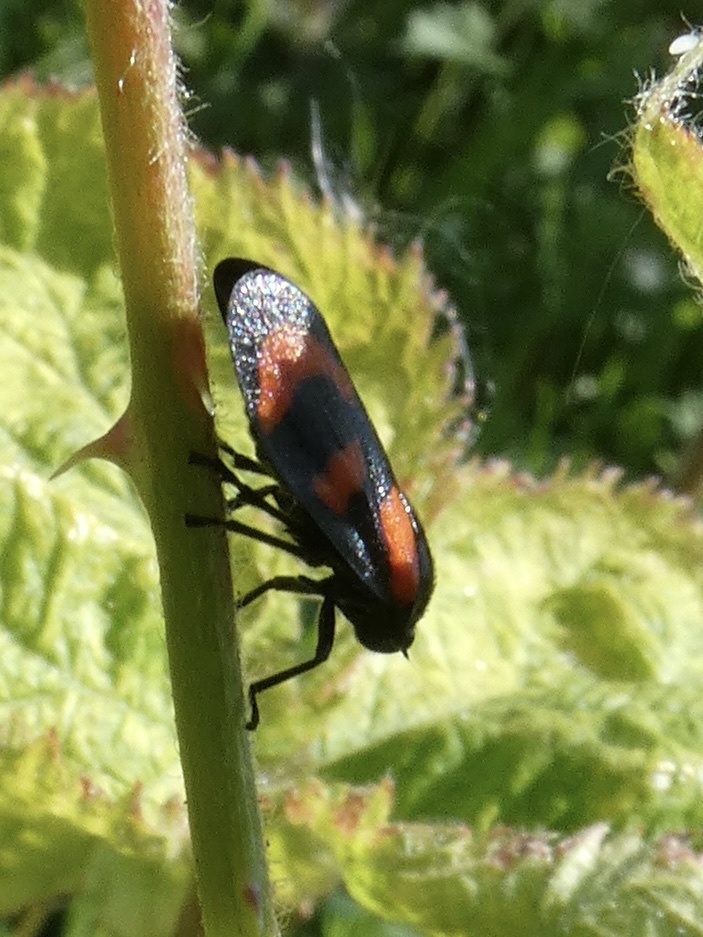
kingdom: Animalia
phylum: Arthropoda
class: Insecta
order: Hemiptera
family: Cercopidae
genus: Cercopis
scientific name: Cercopis vulnerata
